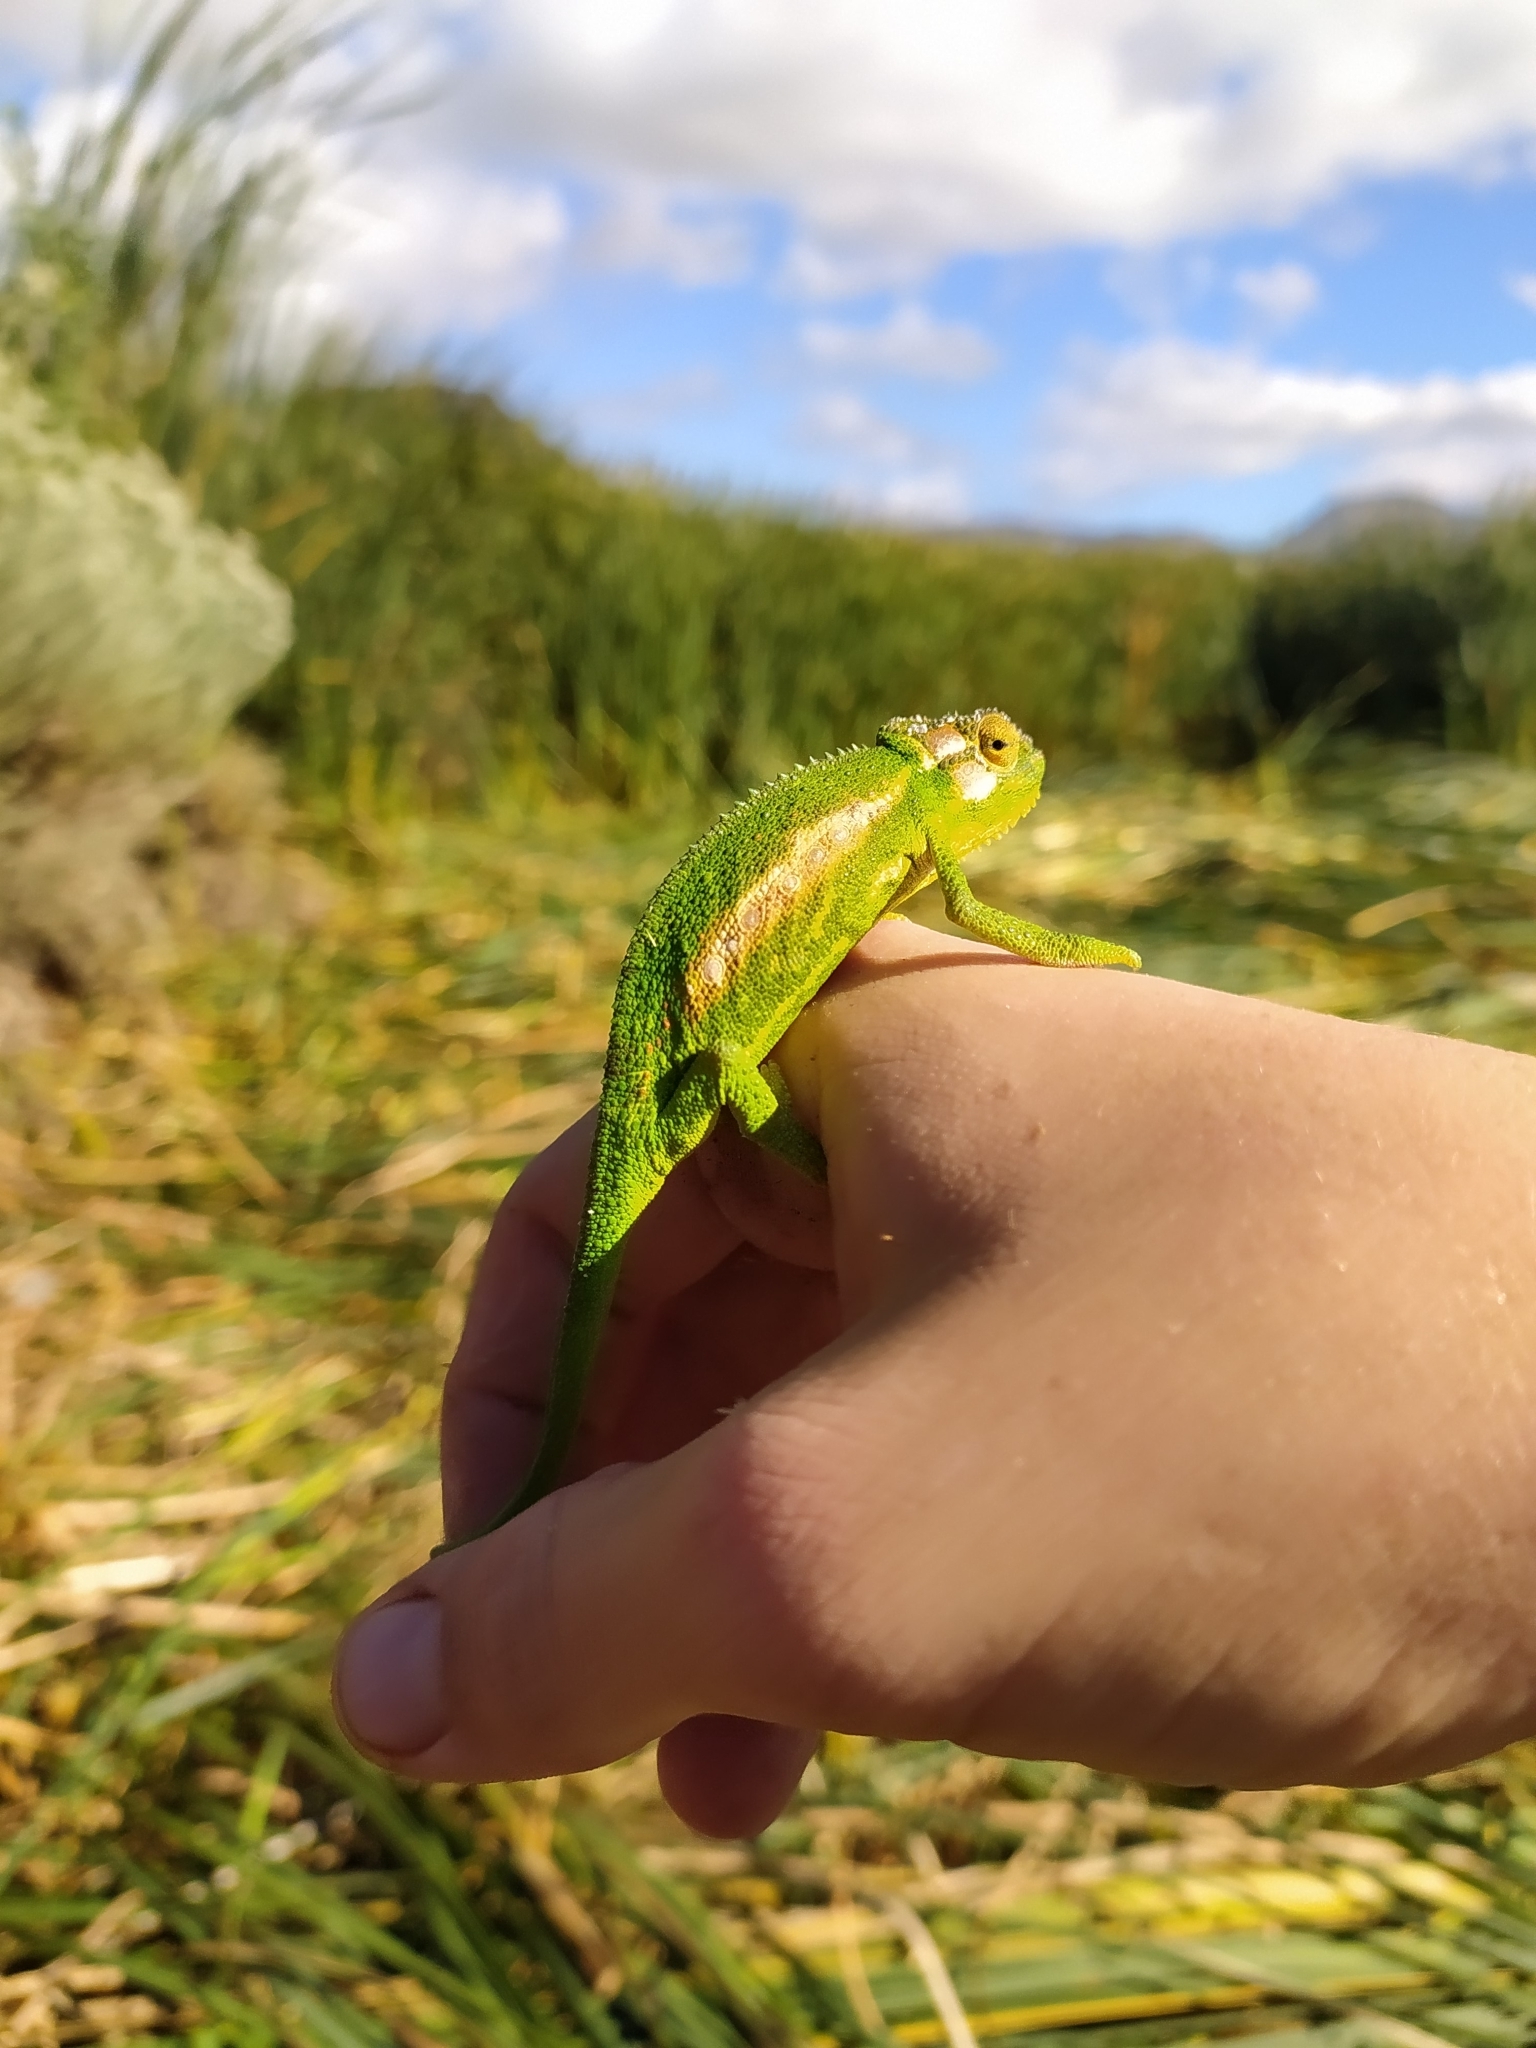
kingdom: Animalia
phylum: Chordata
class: Squamata
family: Chamaeleonidae
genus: Bradypodion
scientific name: Bradypodion pumilum
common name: Cape dwarf chameleon
